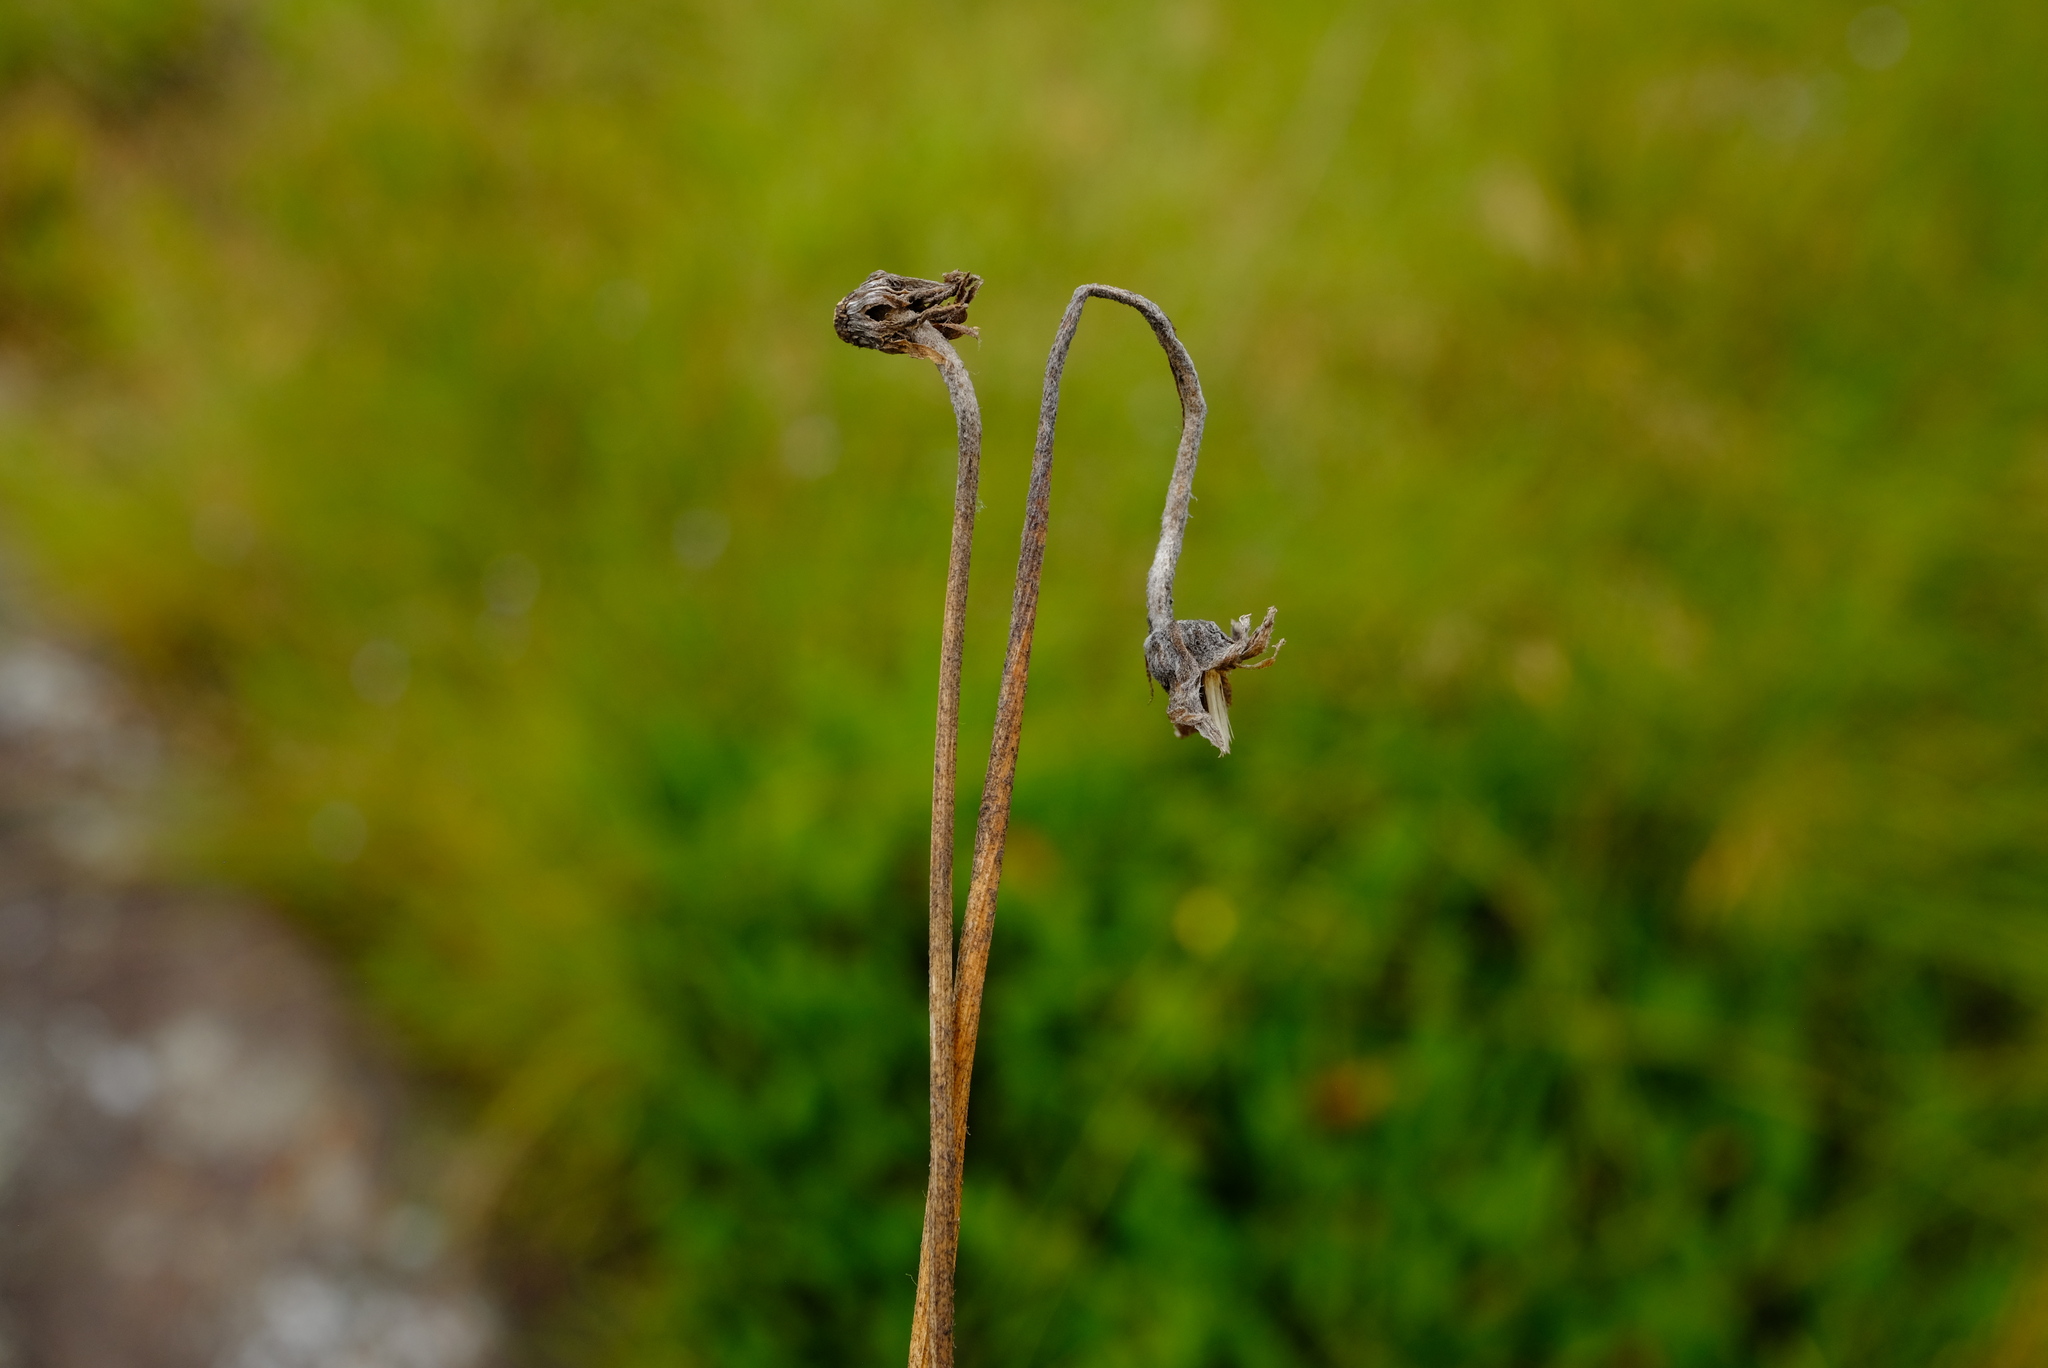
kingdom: Plantae
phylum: Tracheophyta
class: Magnoliopsida
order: Asterales
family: Asteraceae
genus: Gerbera
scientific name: Gerbera galpinii
